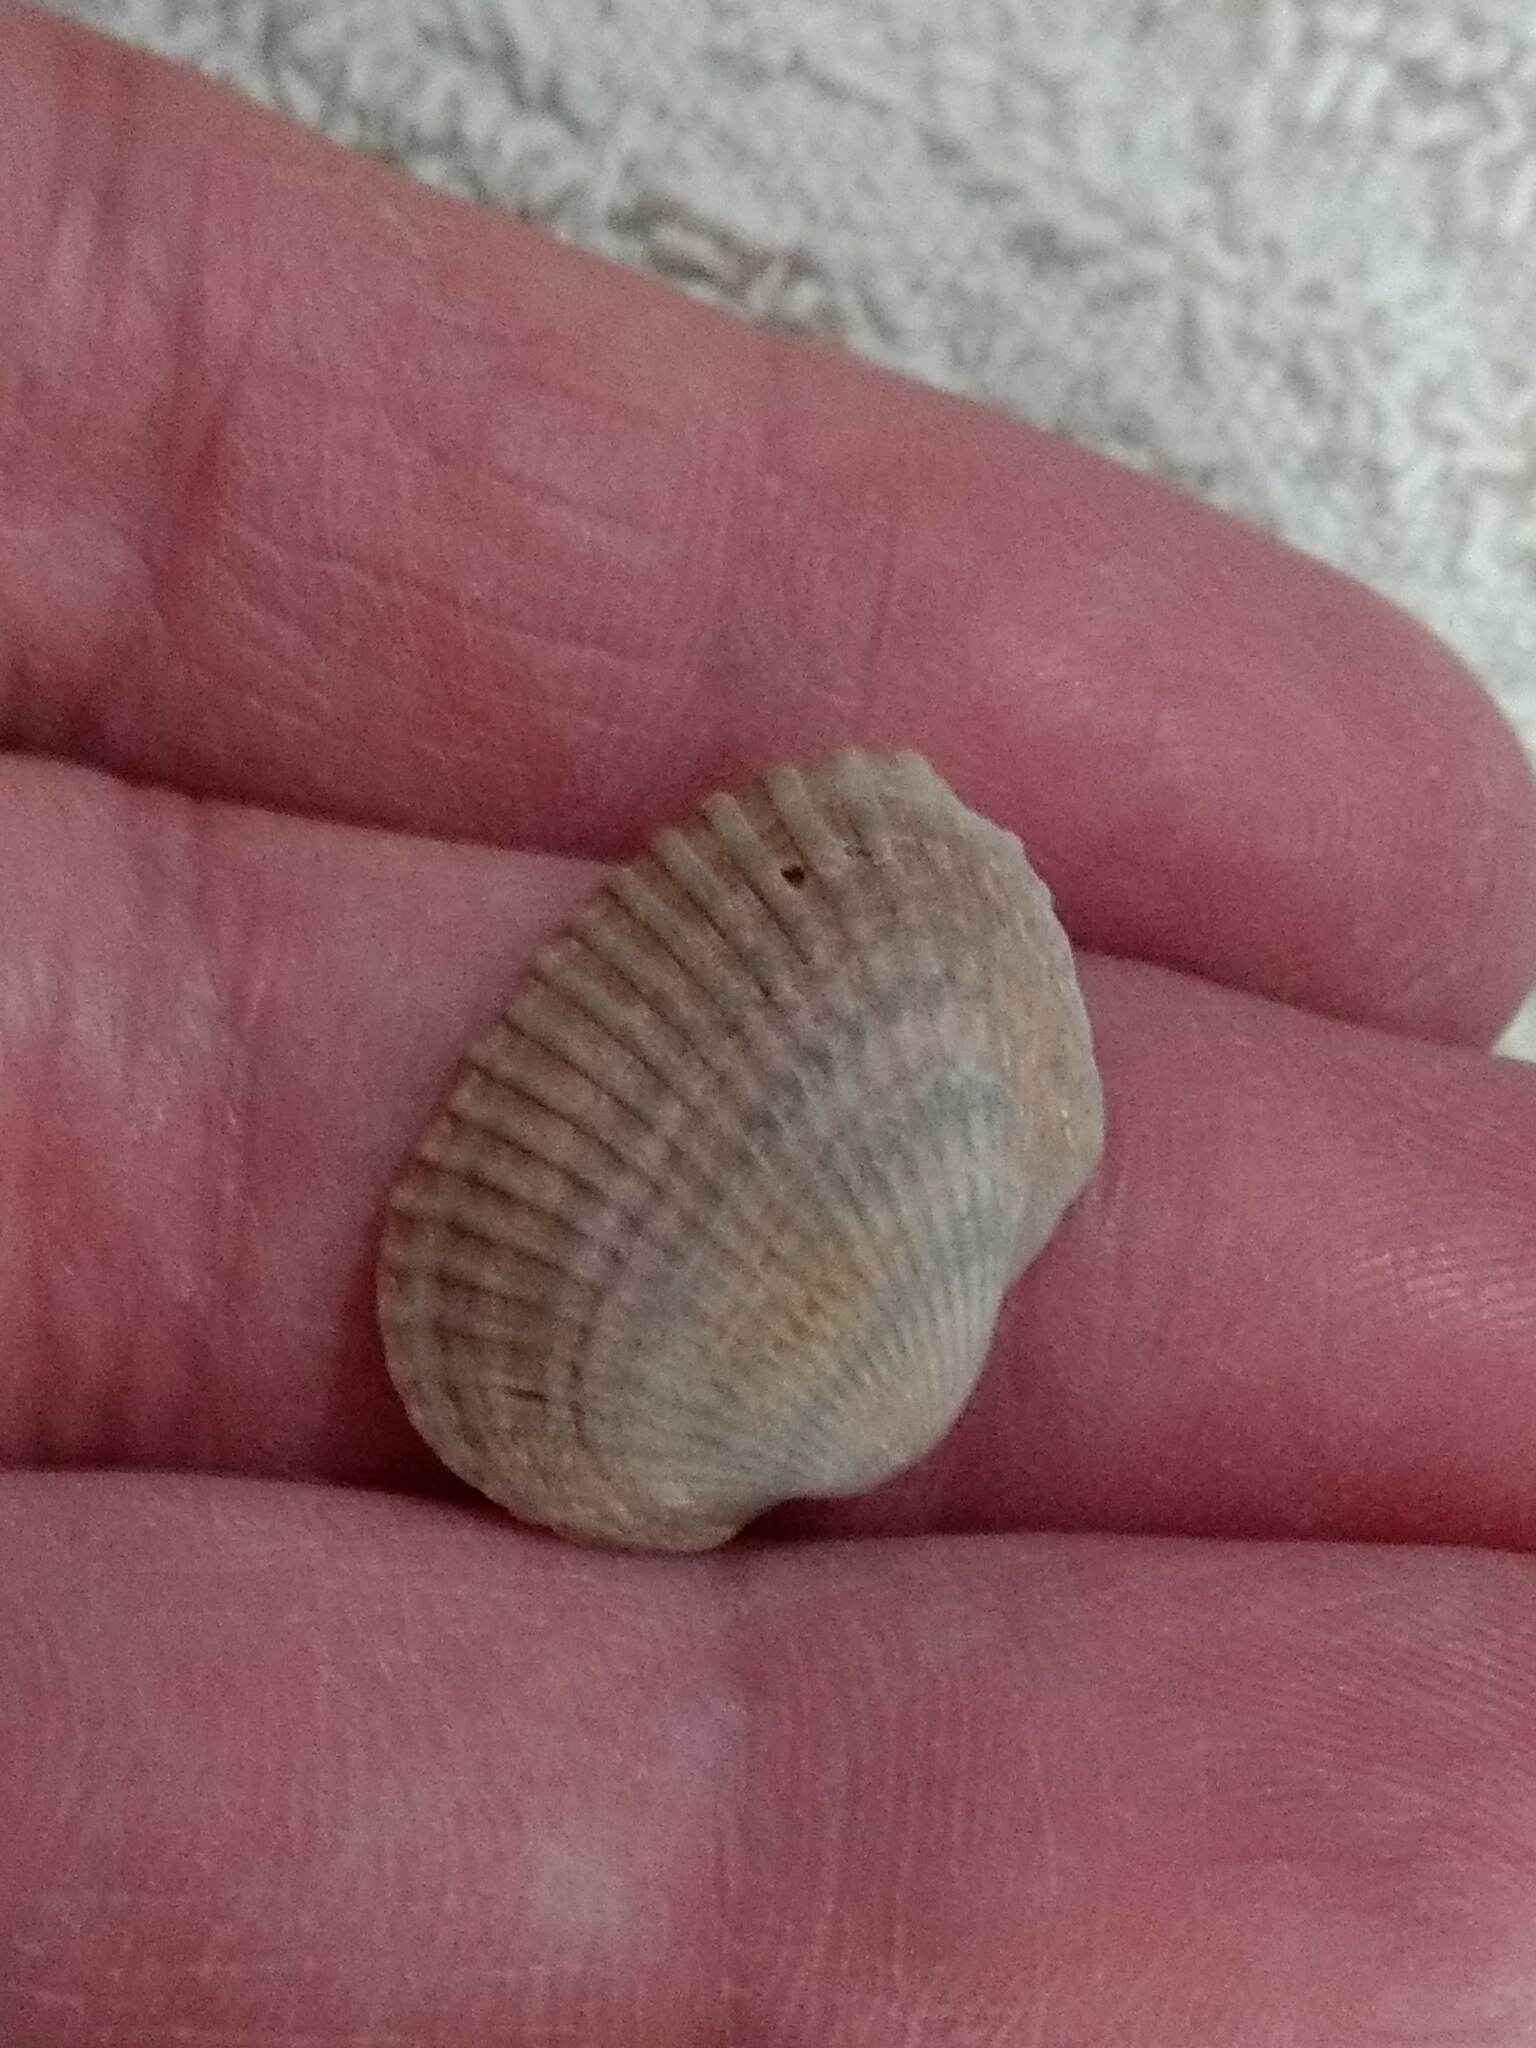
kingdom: Animalia
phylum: Mollusca
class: Bivalvia
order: Arcida
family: Arcidae
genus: Anadara
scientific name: Anadara transversa
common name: Transverse ark
